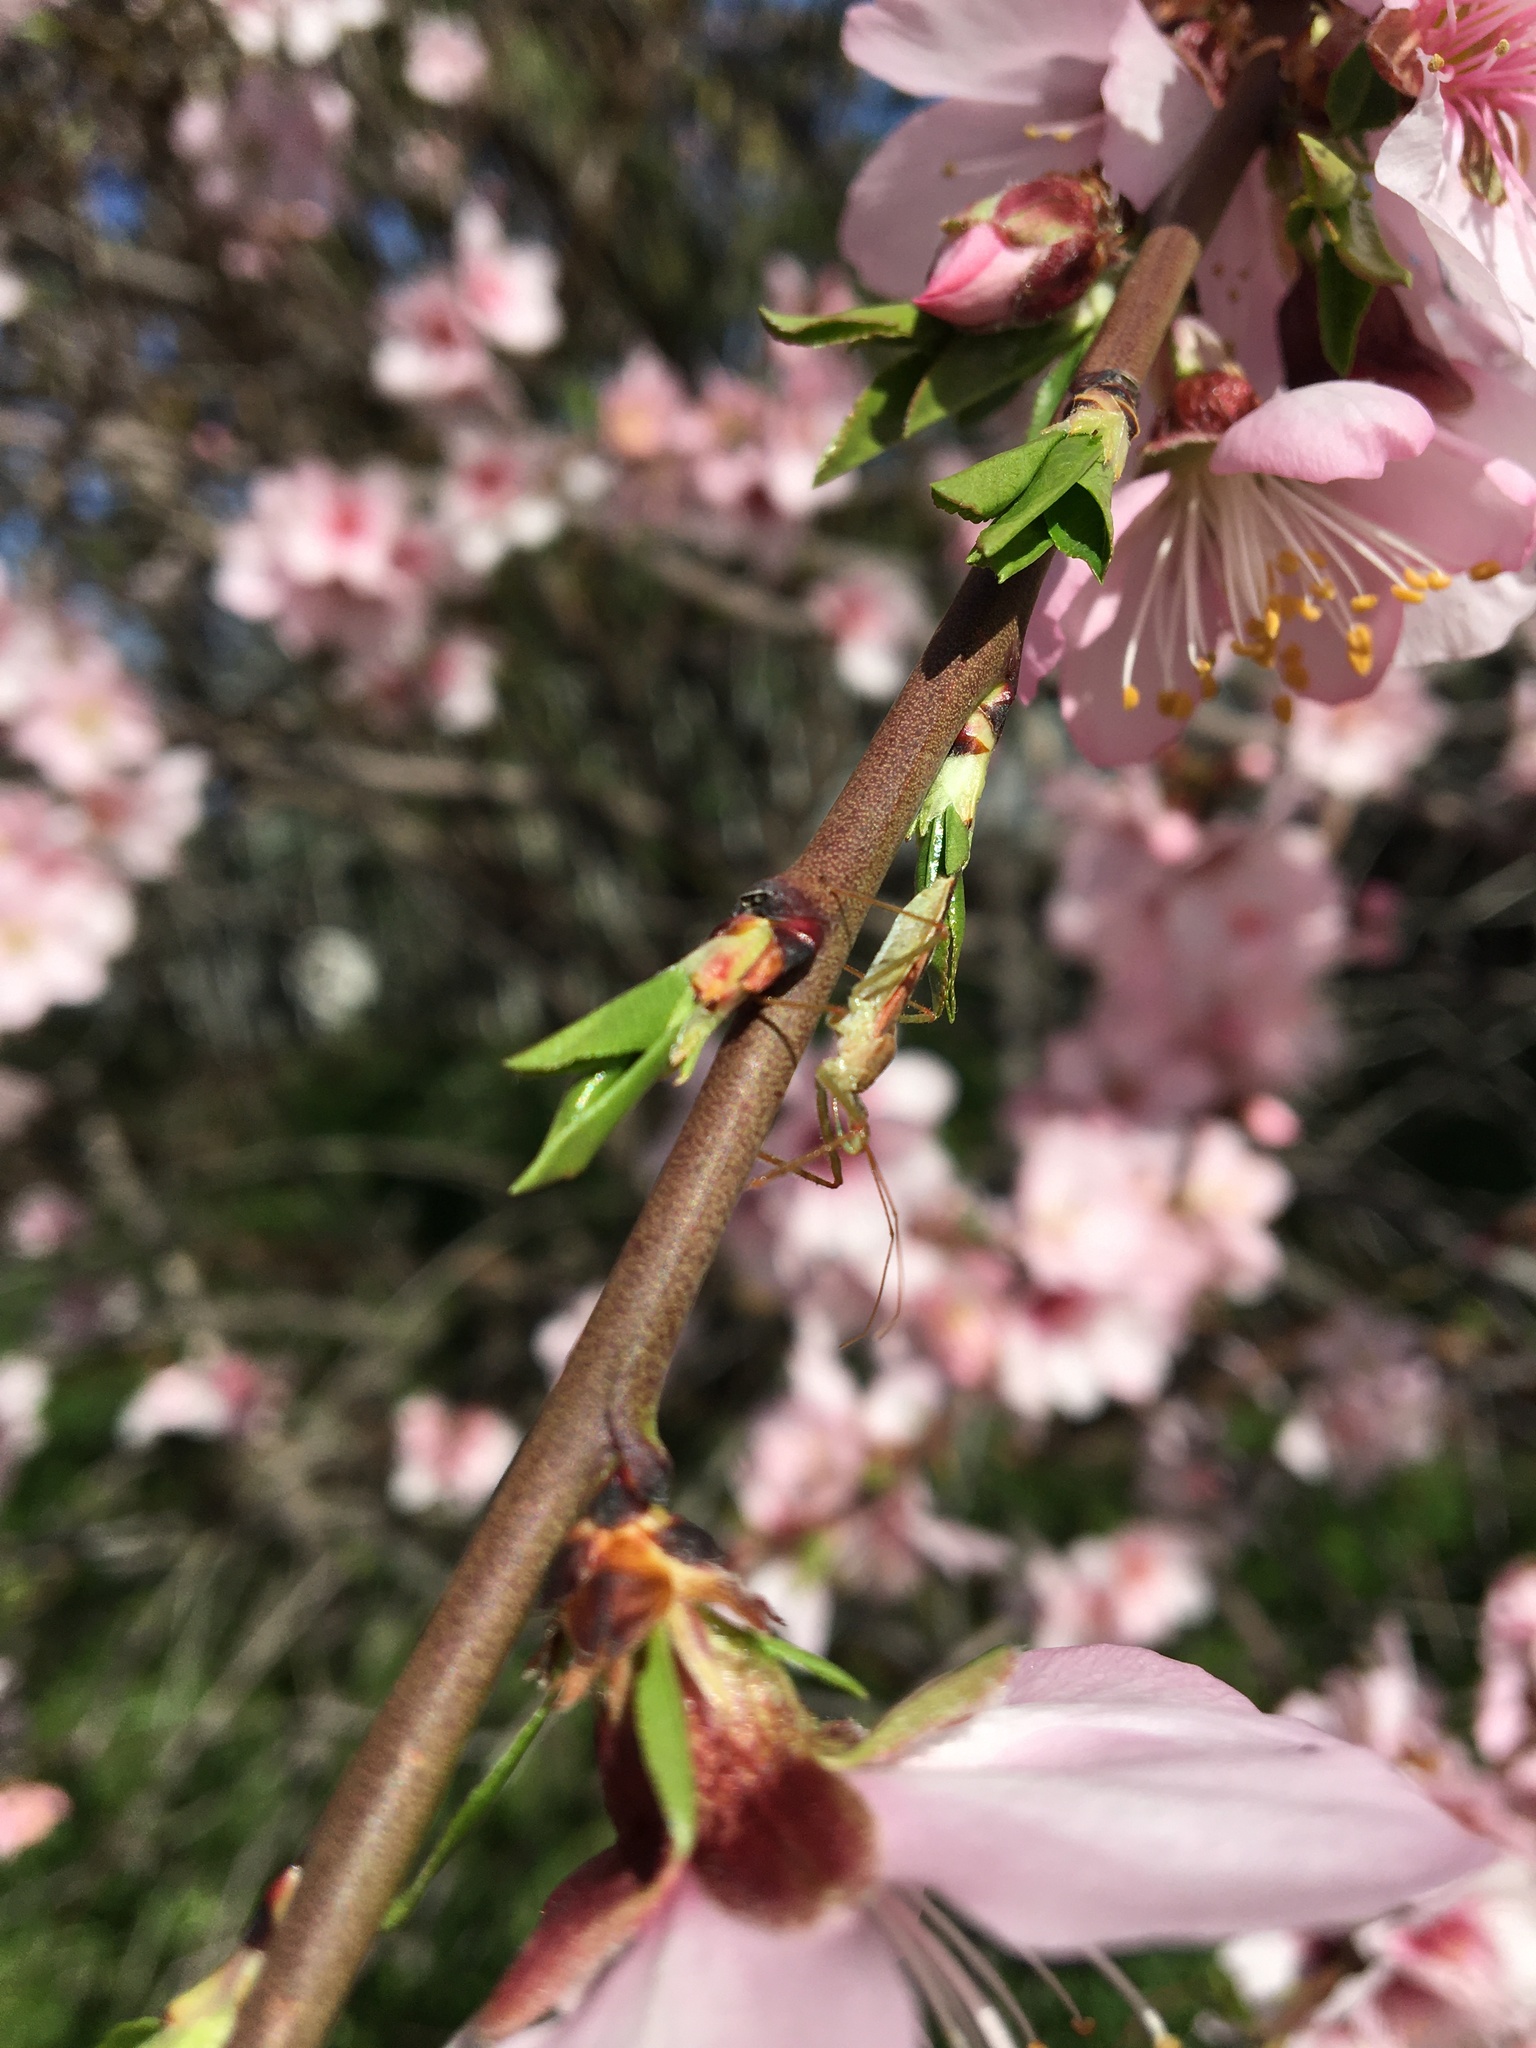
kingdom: Animalia
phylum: Arthropoda
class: Insecta
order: Hemiptera
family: Reduviidae
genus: Zelus
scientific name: Zelus renardii
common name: Assassin bug
